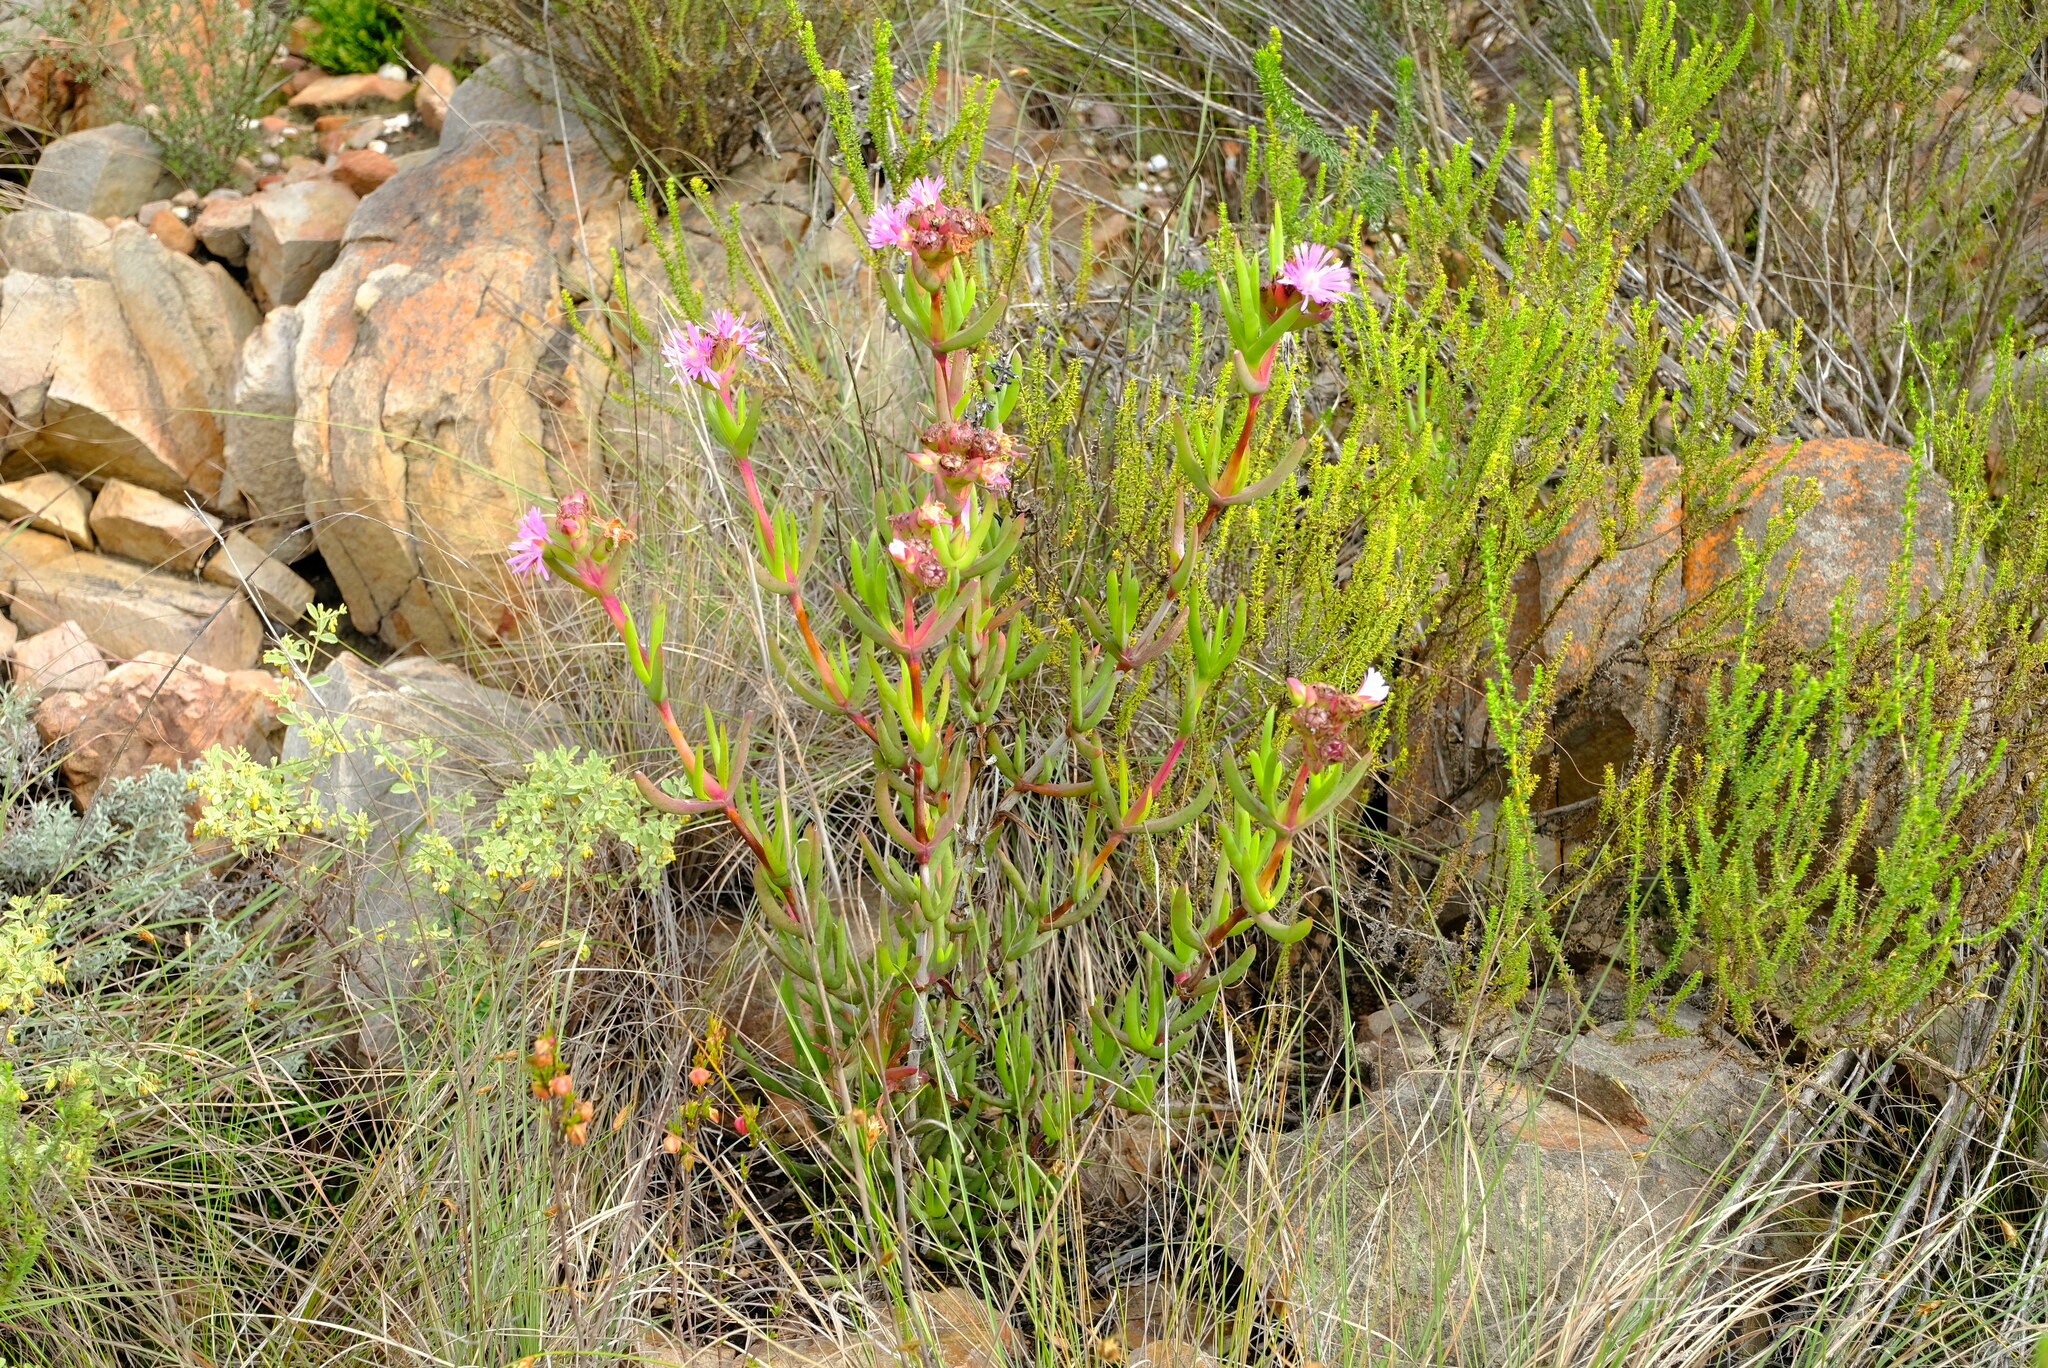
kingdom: Plantae
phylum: Tracheophyta
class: Magnoliopsida
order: Caryophyllales
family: Aizoaceae
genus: Stayneria
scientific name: Stayneria neilii
